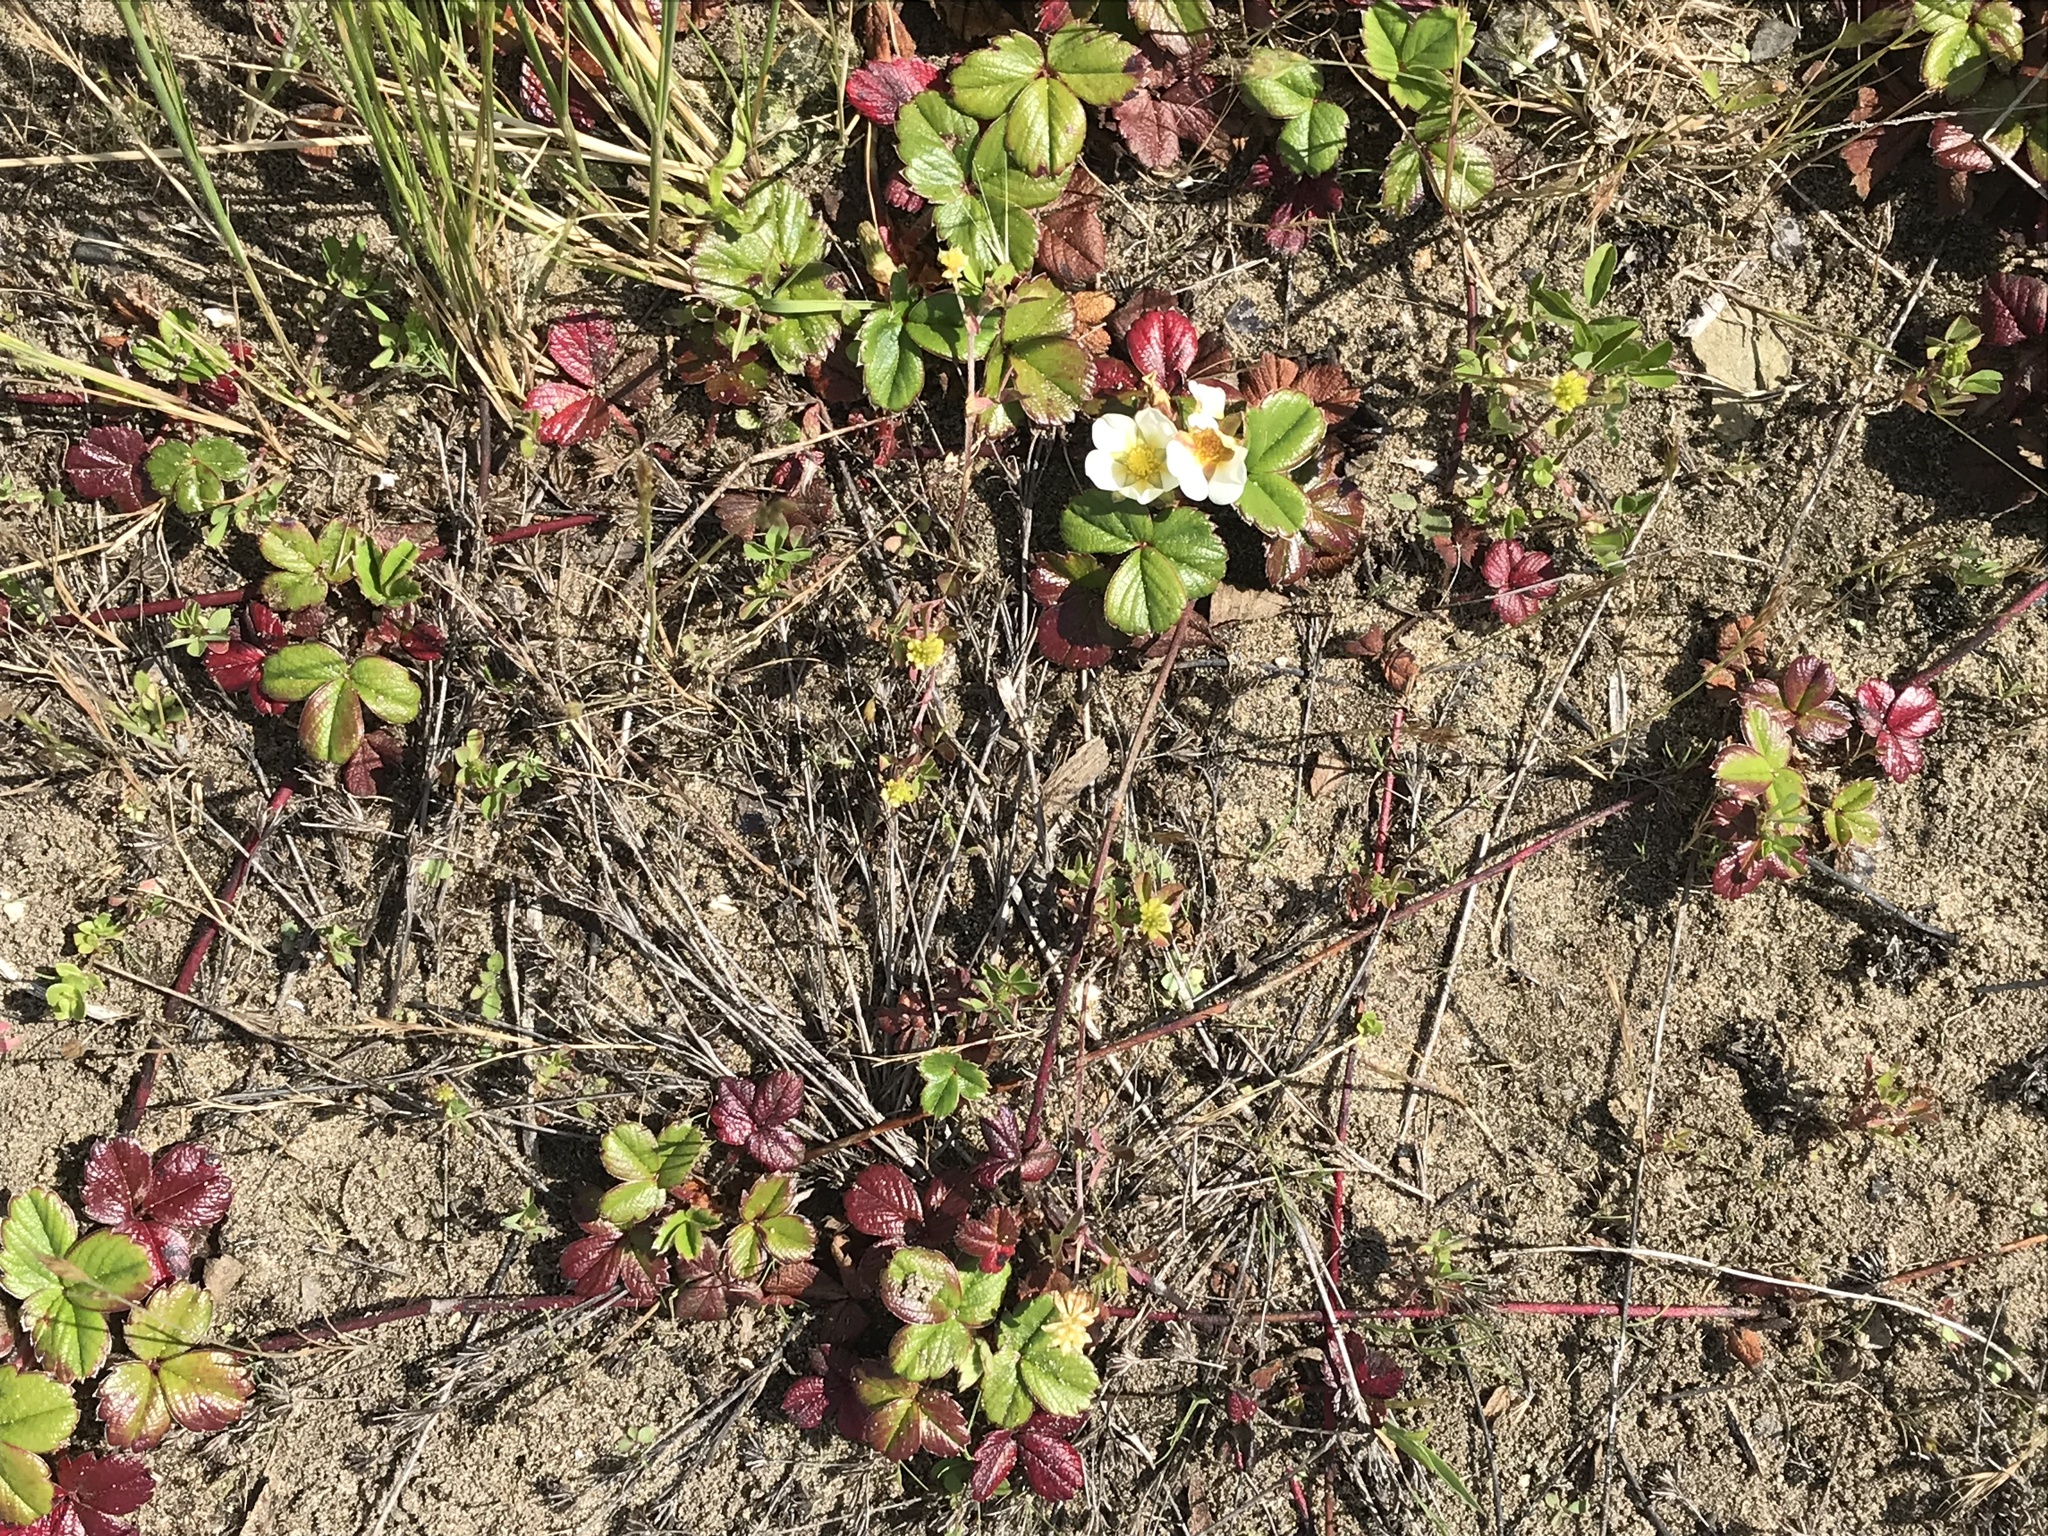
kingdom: Plantae
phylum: Tracheophyta
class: Magnoliopsida
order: Rosales
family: Rosaceae
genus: Fragaria
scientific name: Fragaria chiloensis
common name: Beach strawberry
